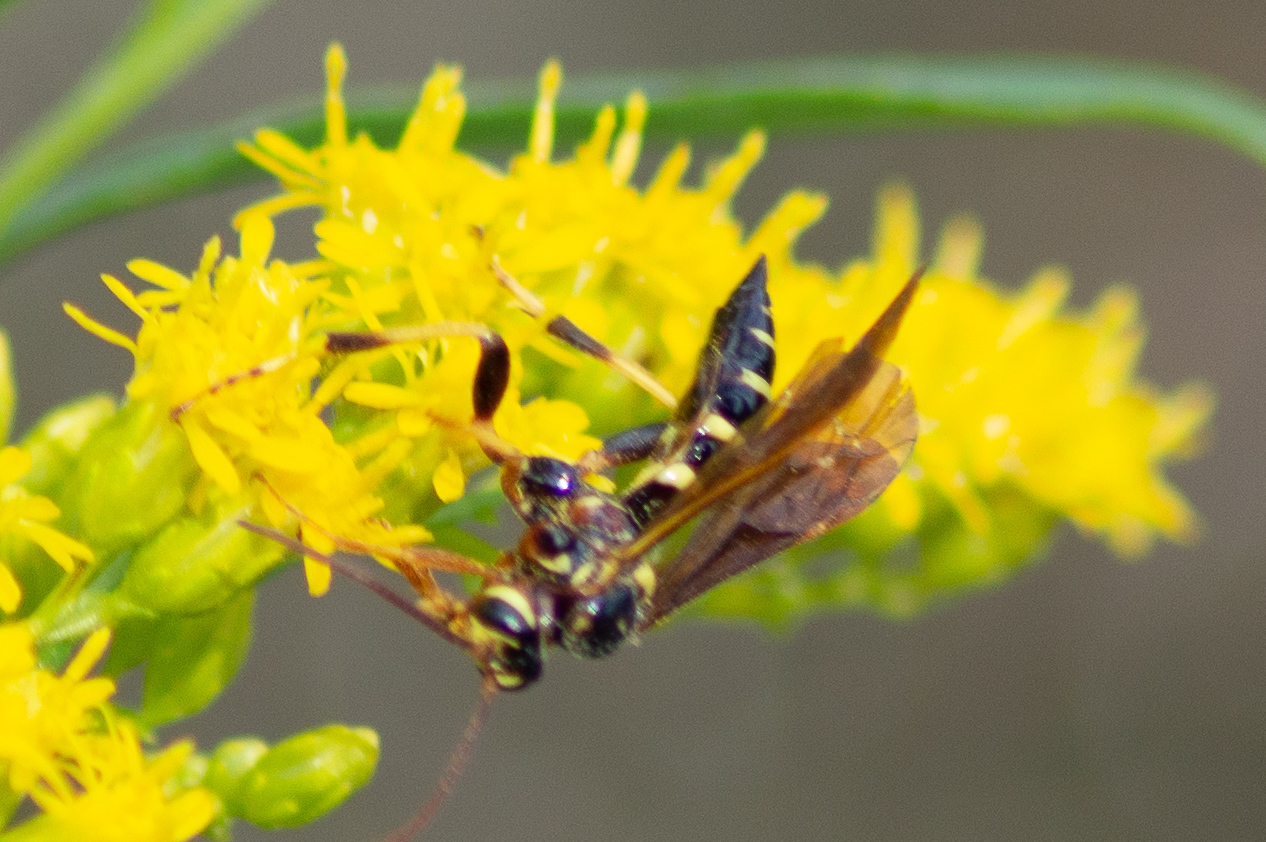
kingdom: Animalia
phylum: Arthropoda
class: Insecta
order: Hymenoptera
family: Ichneumonidae
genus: Ceratogastra
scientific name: Ceratogastra ornata
